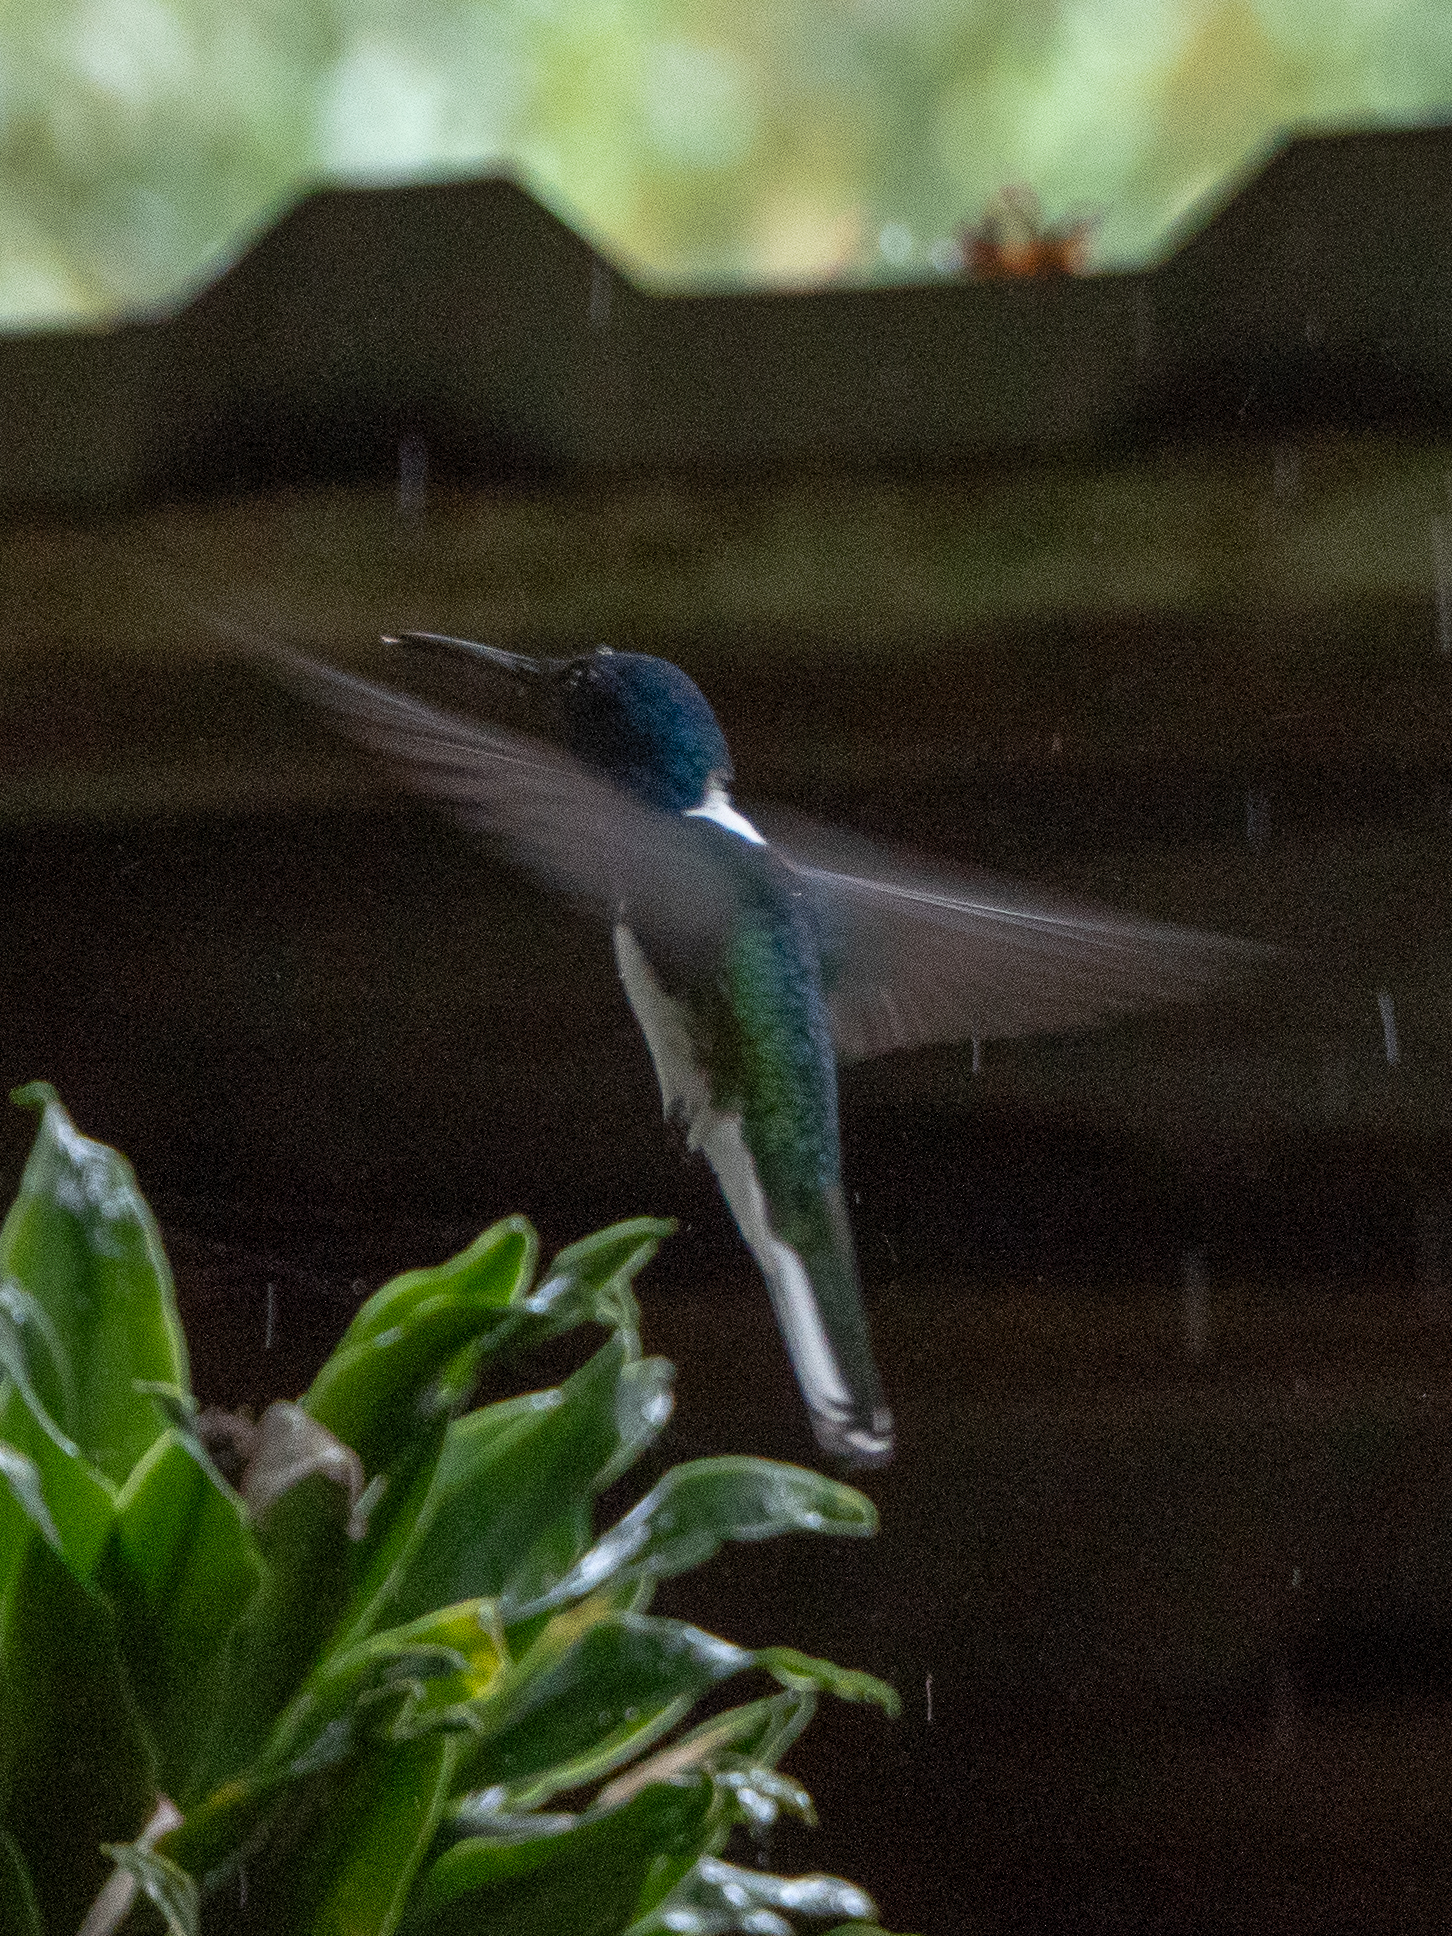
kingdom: Animalia
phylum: Chordata
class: Aves
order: Apodiformes
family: Trochilidae
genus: Florisuga
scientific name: Florisuga mellivora
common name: White-necked jacobin
